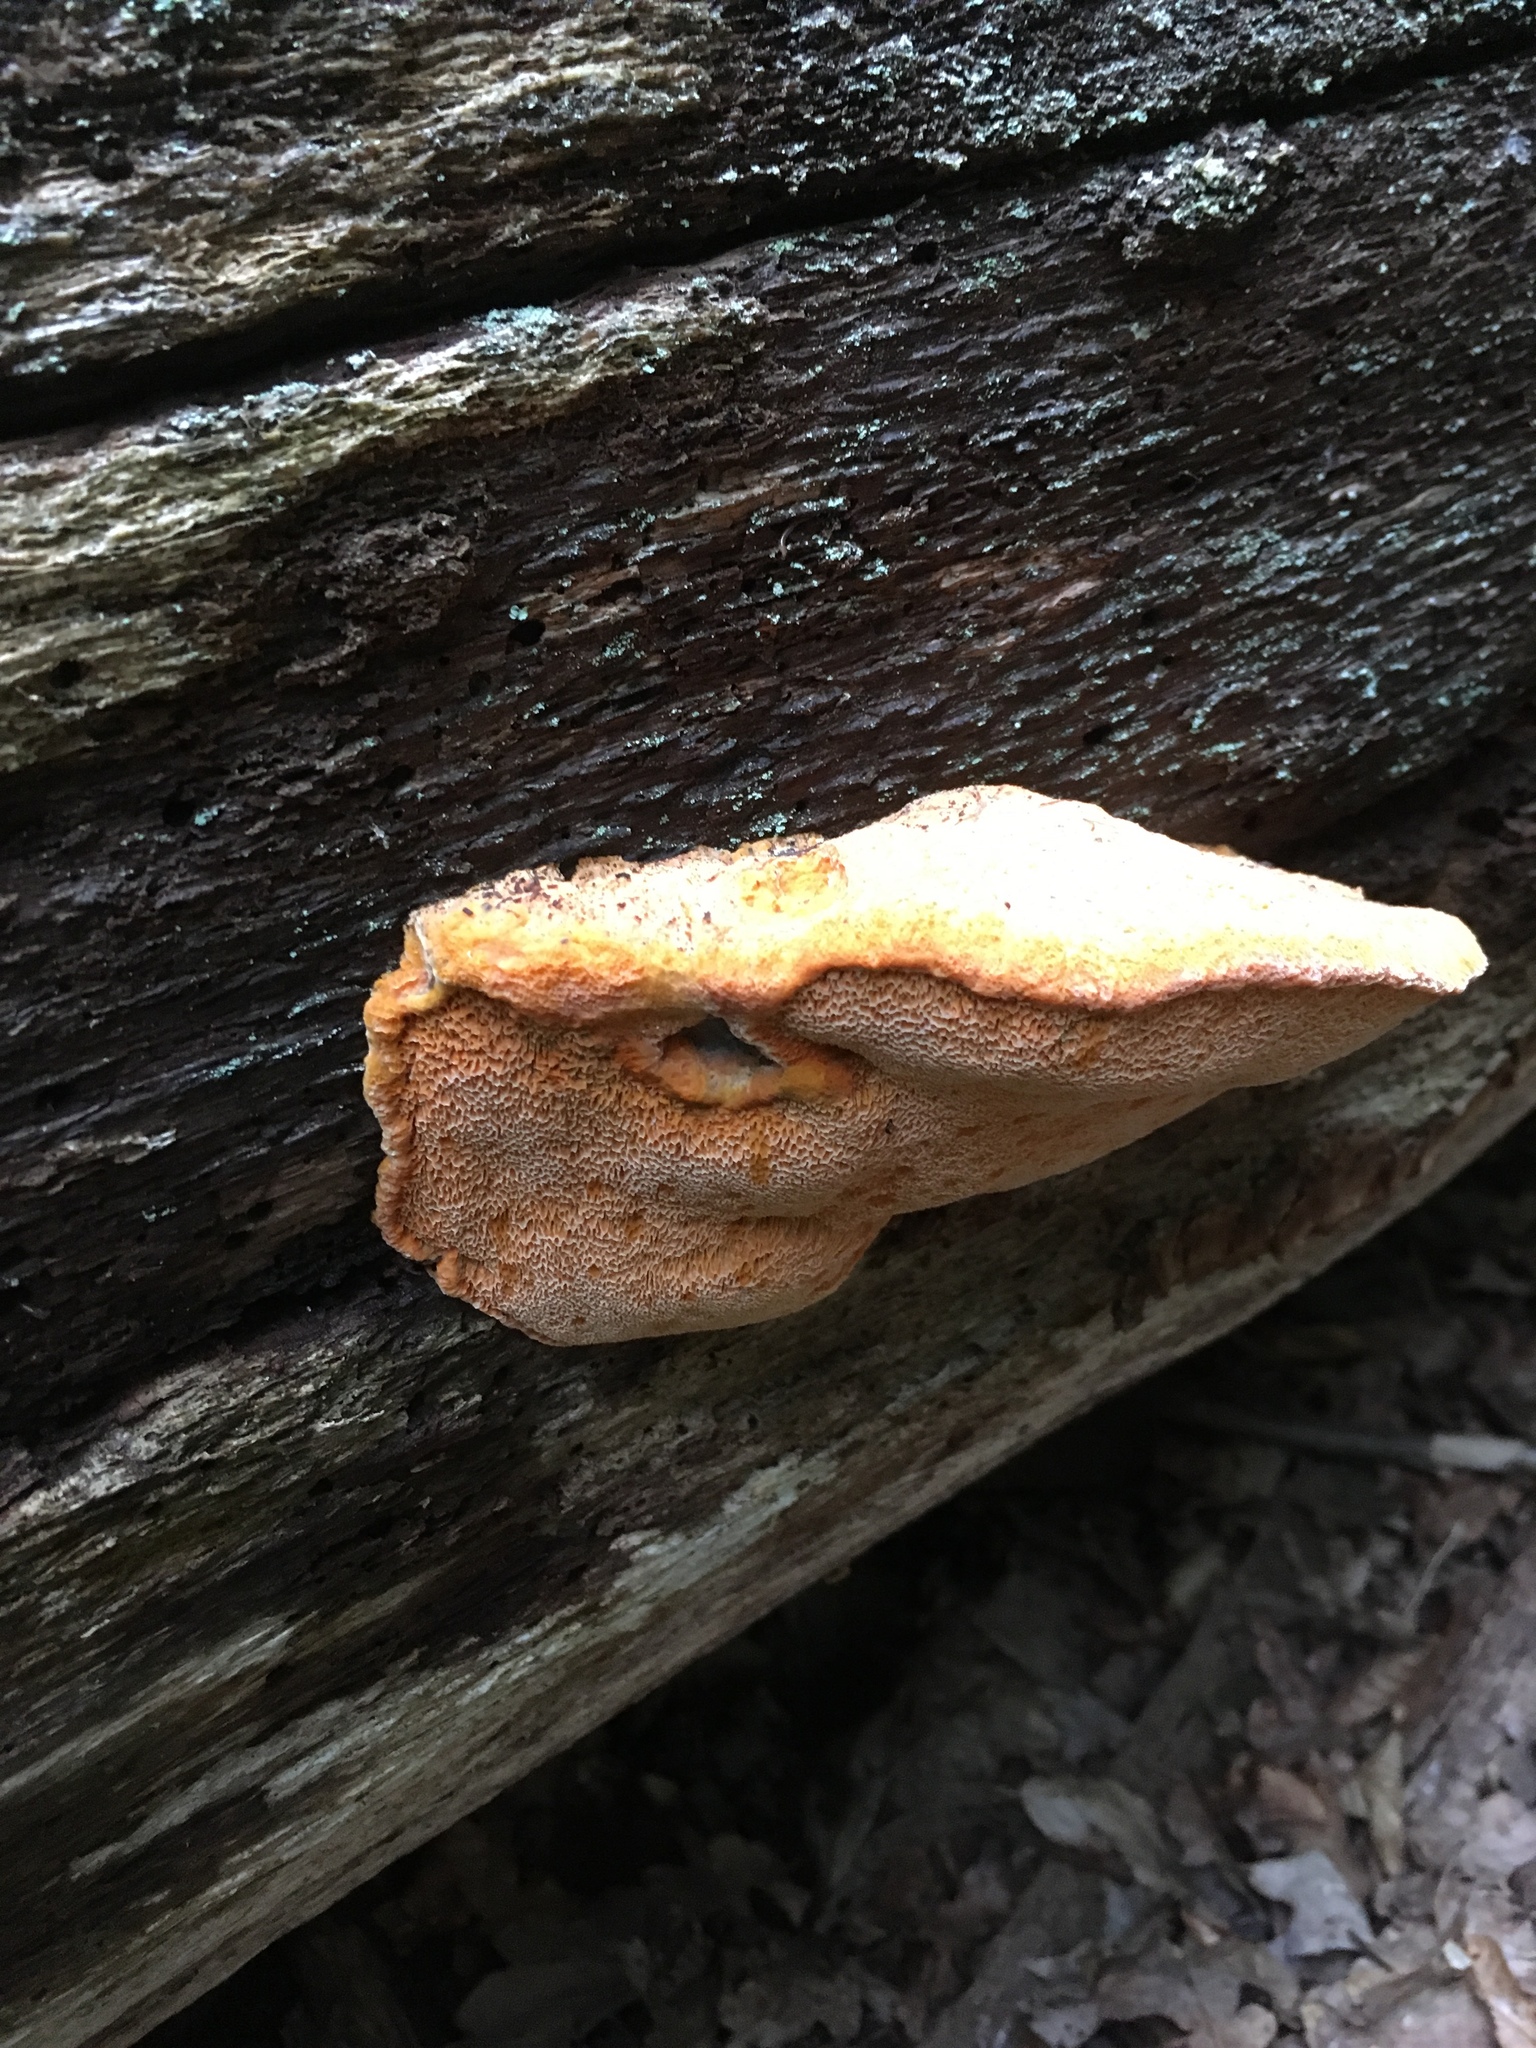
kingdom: Fungi
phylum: Basidiomycota
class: Agaricomycetes
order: Polyporales
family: Phanerochaetaceae
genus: Hapalopilus
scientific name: Hapalopilus croceus
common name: Orange polypore
